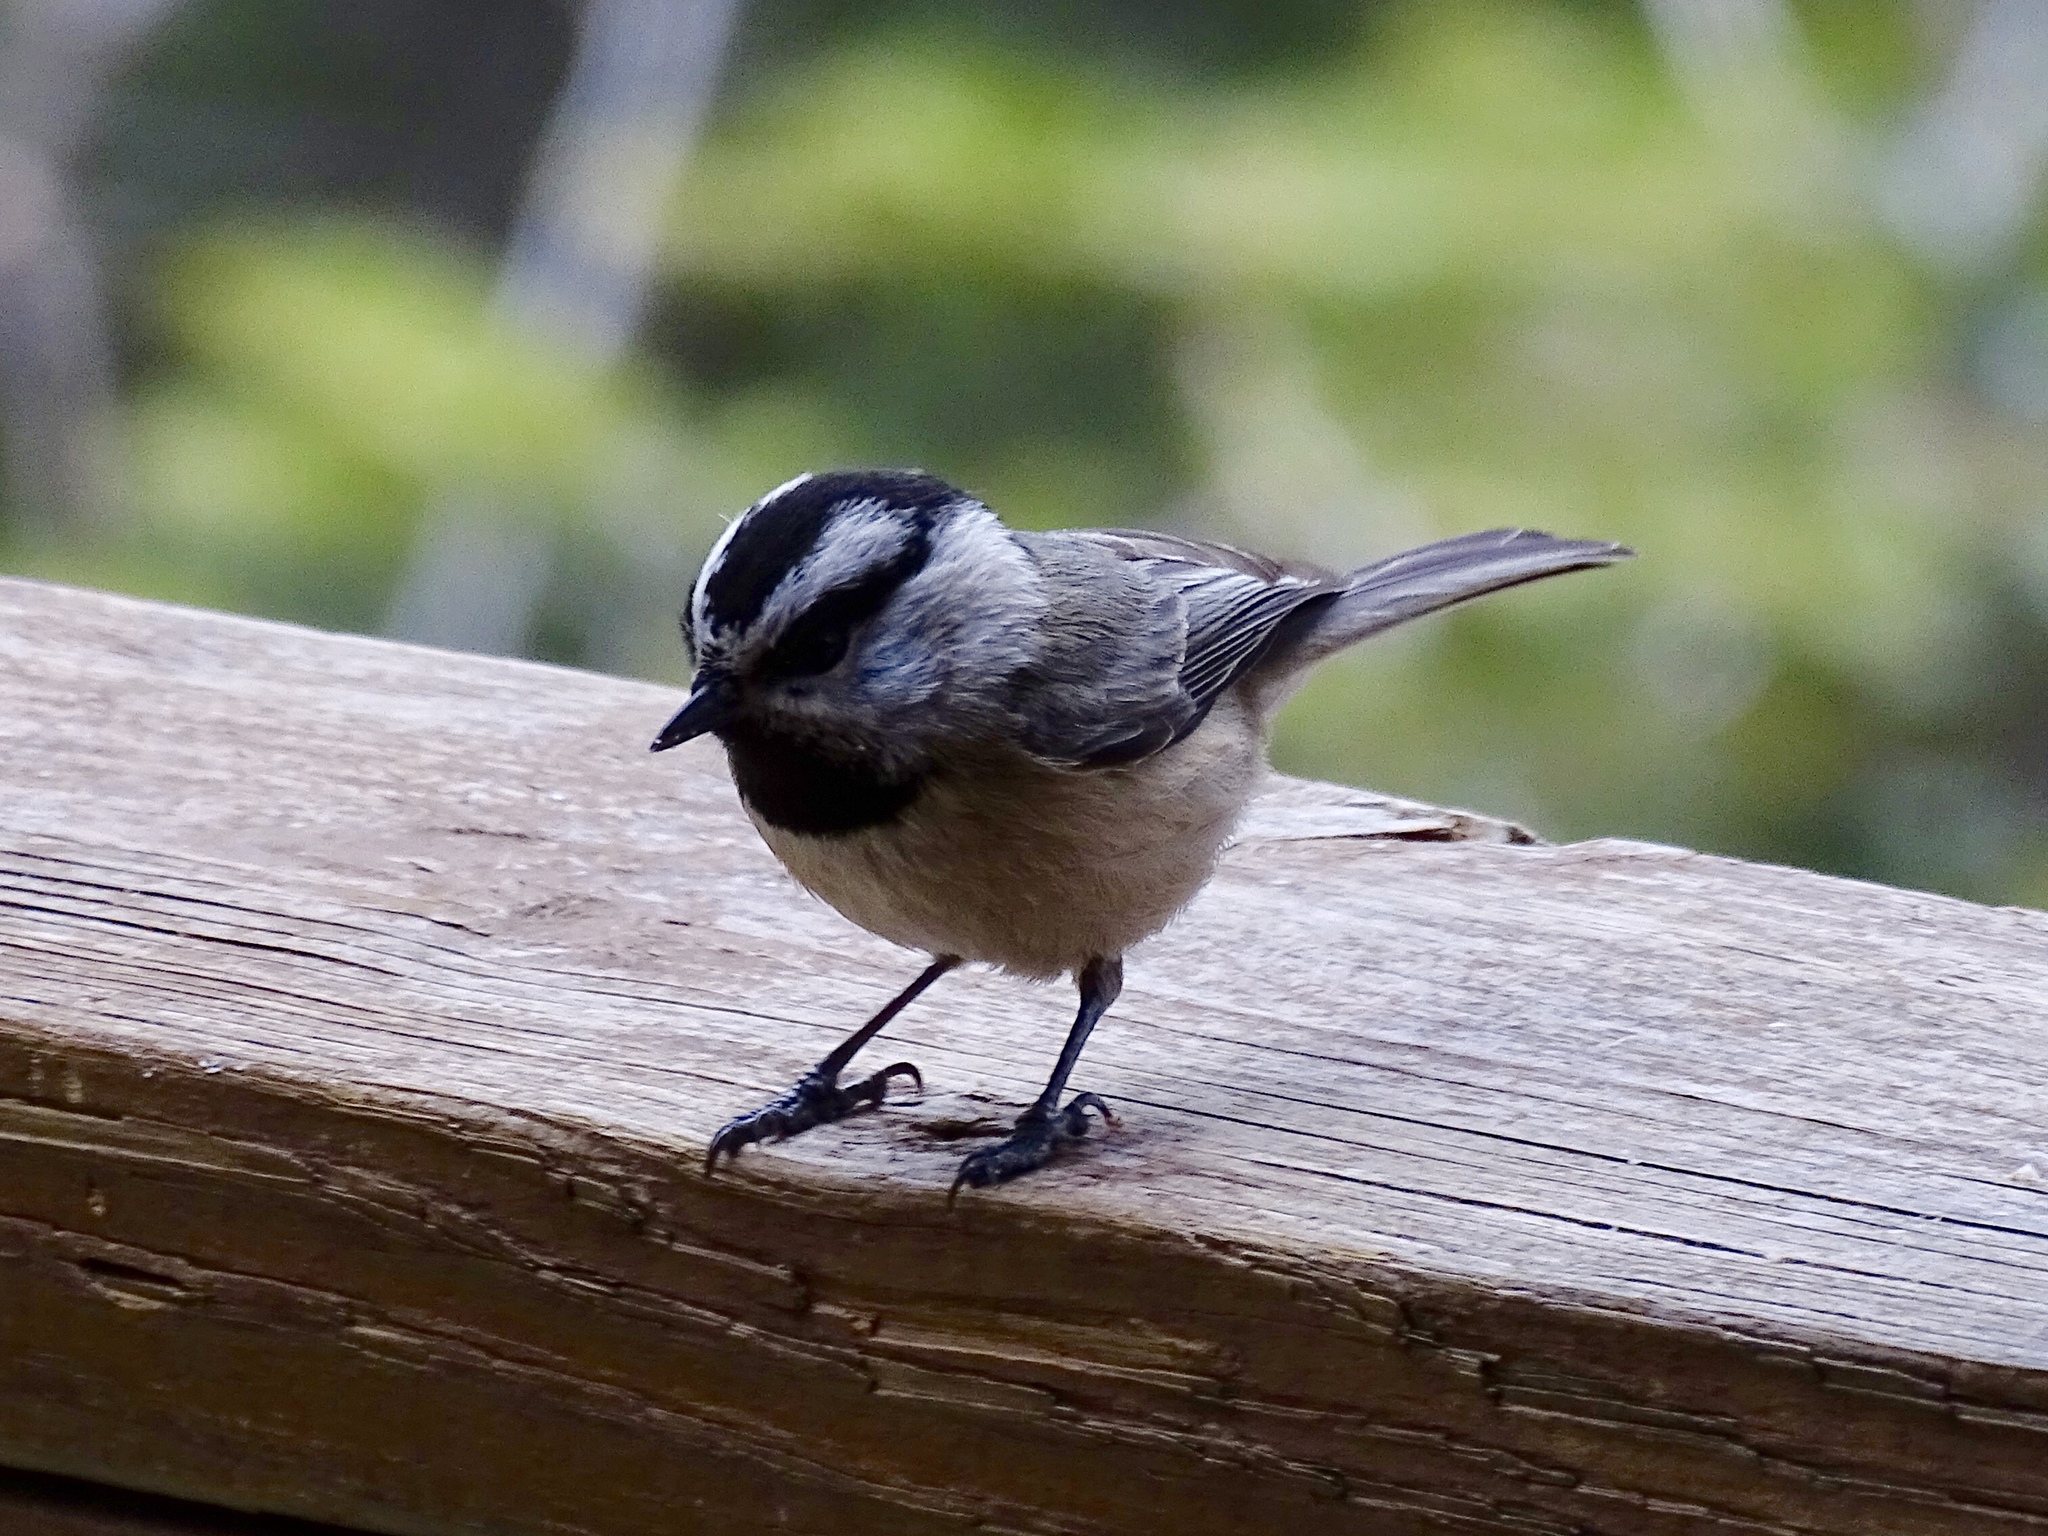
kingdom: Animalia
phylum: Chordata
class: Aves
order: Passeriformes
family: Paridae
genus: Poecile
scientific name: Poecile gambeli
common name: Mountain chickadee
